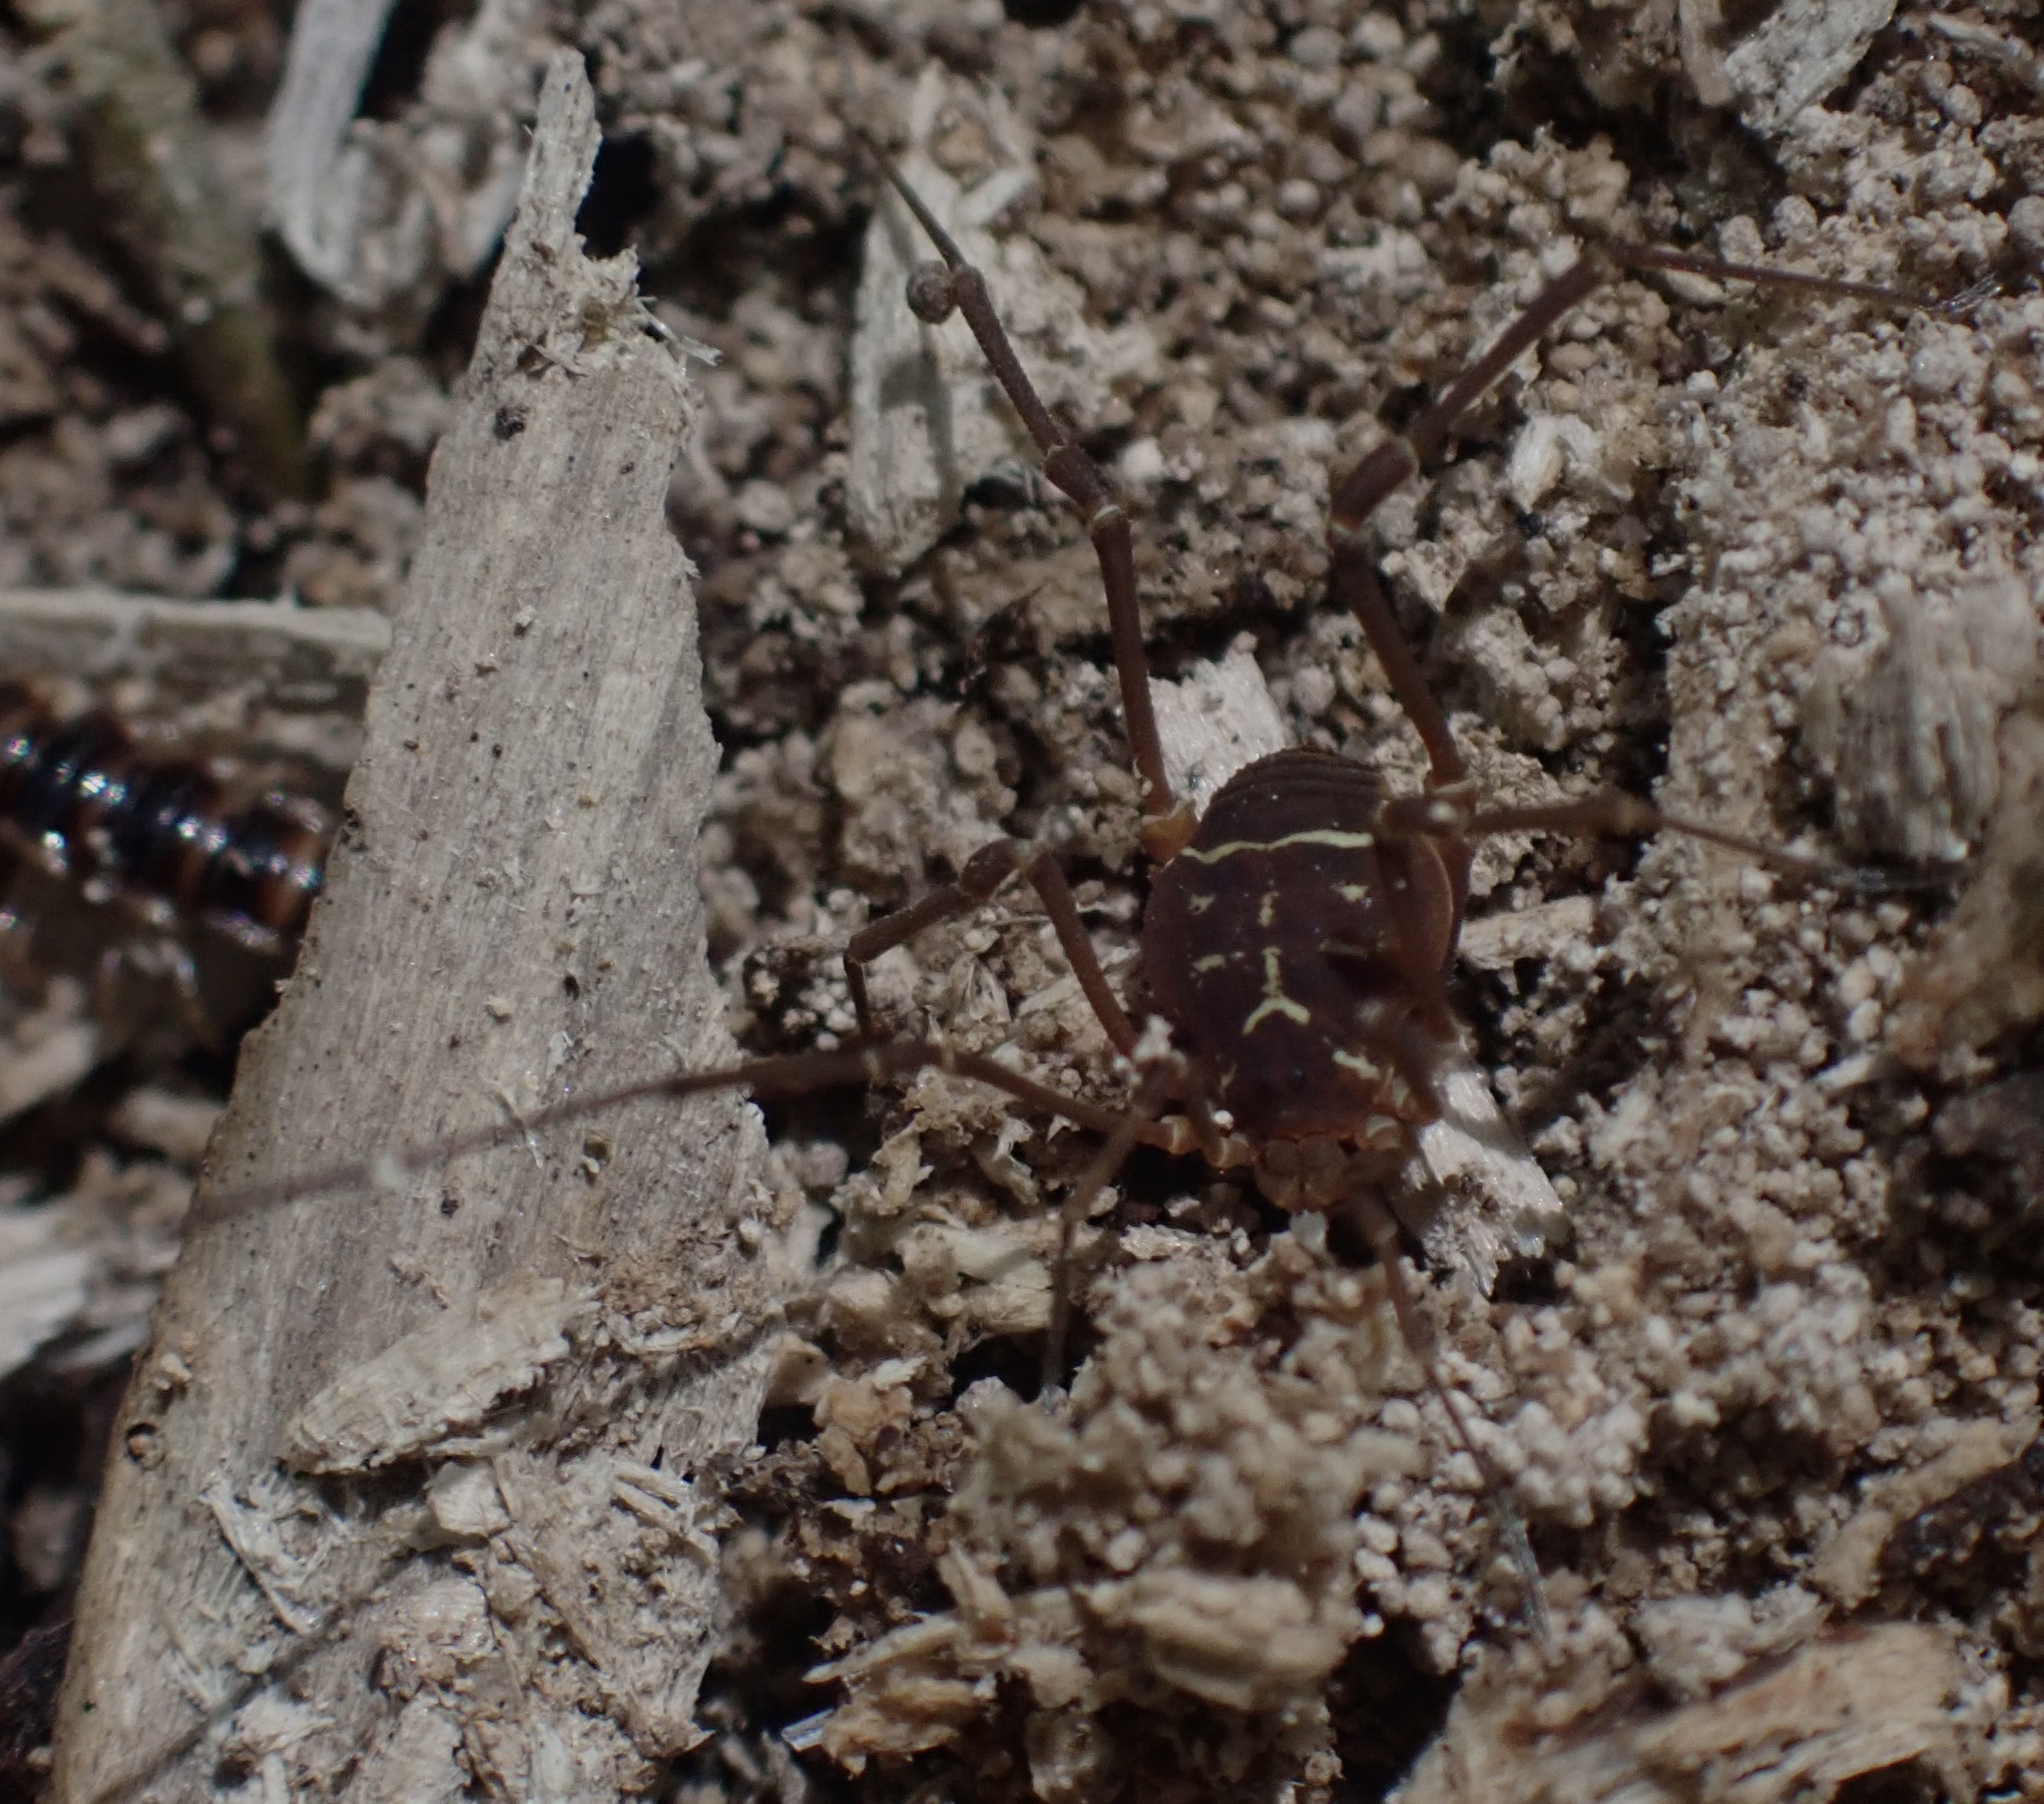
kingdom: Animalia
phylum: Arthropoda
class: Arachnida
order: Opiliones
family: Cosmetidae
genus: Libitioides
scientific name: Libitioides sayi
